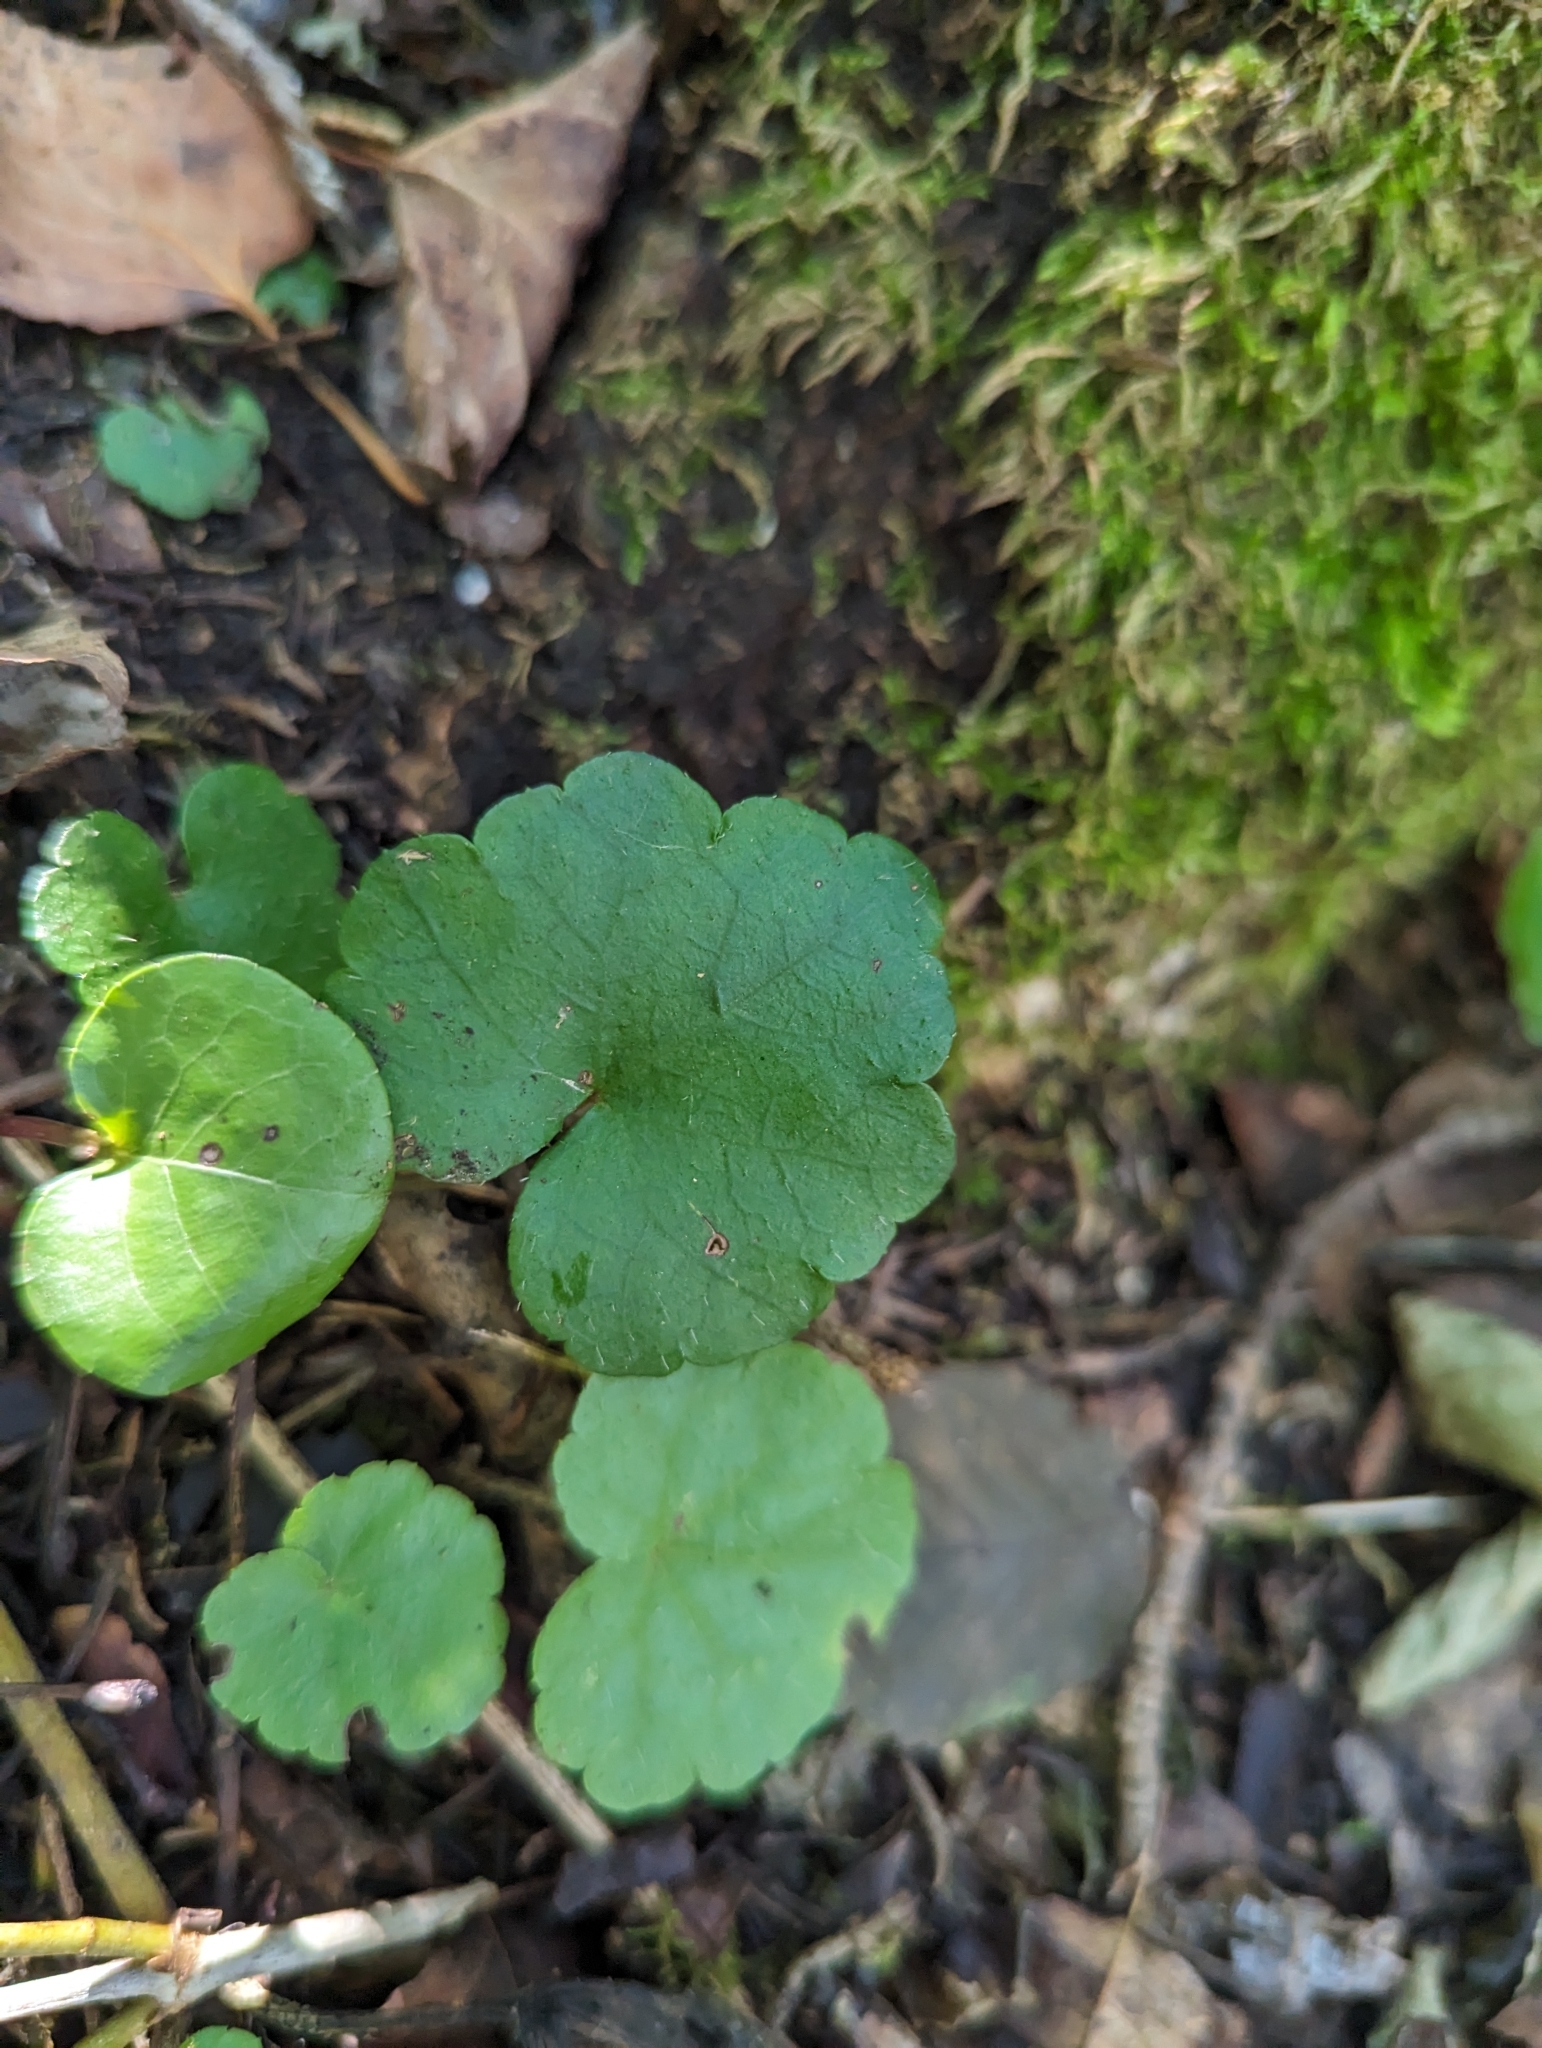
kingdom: Plantae
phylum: Tracheophyta
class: Magnoliopsida
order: Saxifragales
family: Saxifragaceae
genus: Mitella
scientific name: Mitella nuda
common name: Bare-stemmed bishop's-cap
